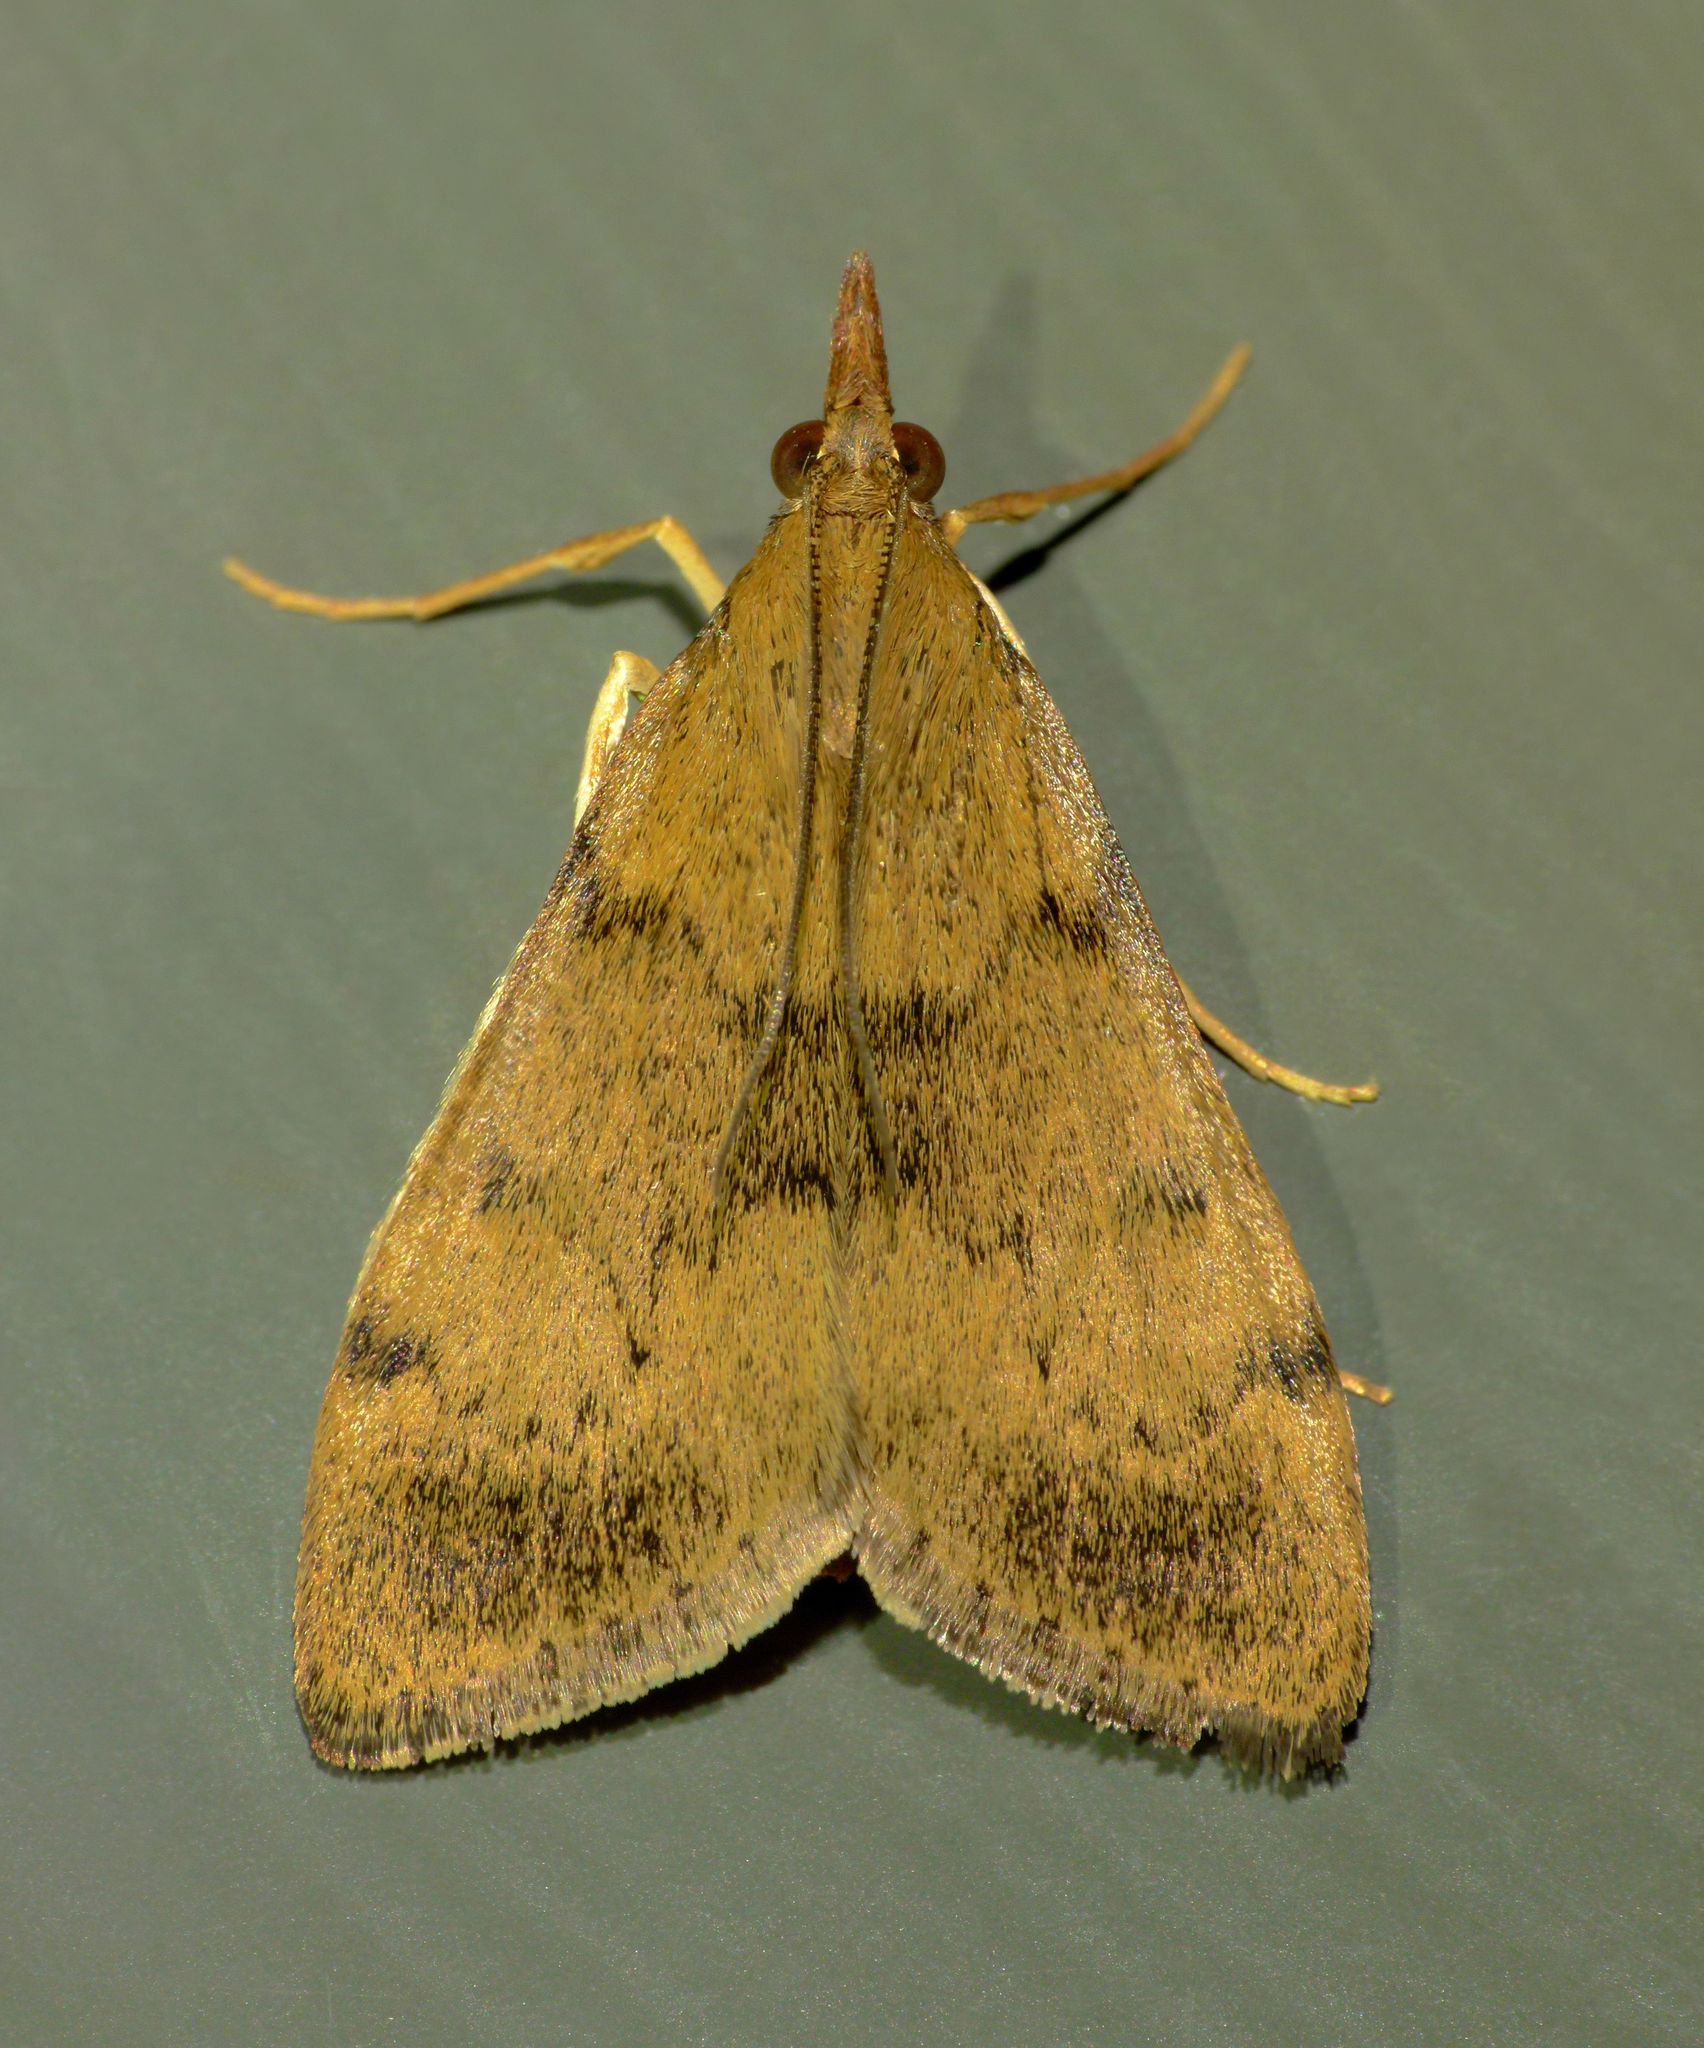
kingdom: Animalia
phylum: Arthropoda
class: Insecta
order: Lepidoptera
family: Crambidae
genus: Uresiphita
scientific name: Uresiphita
